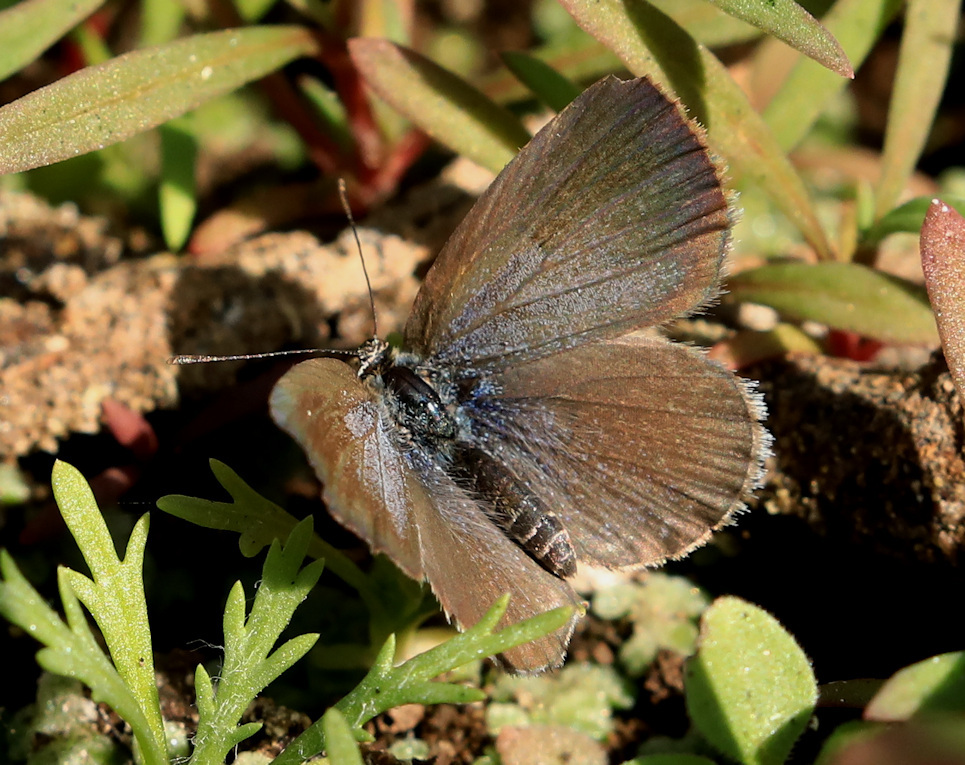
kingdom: Animalia
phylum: Arthropoda
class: Insecta
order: Lepidoptera
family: Lycaenidae
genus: Zizeeria
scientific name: Zizeeria knysna
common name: African grass blue
